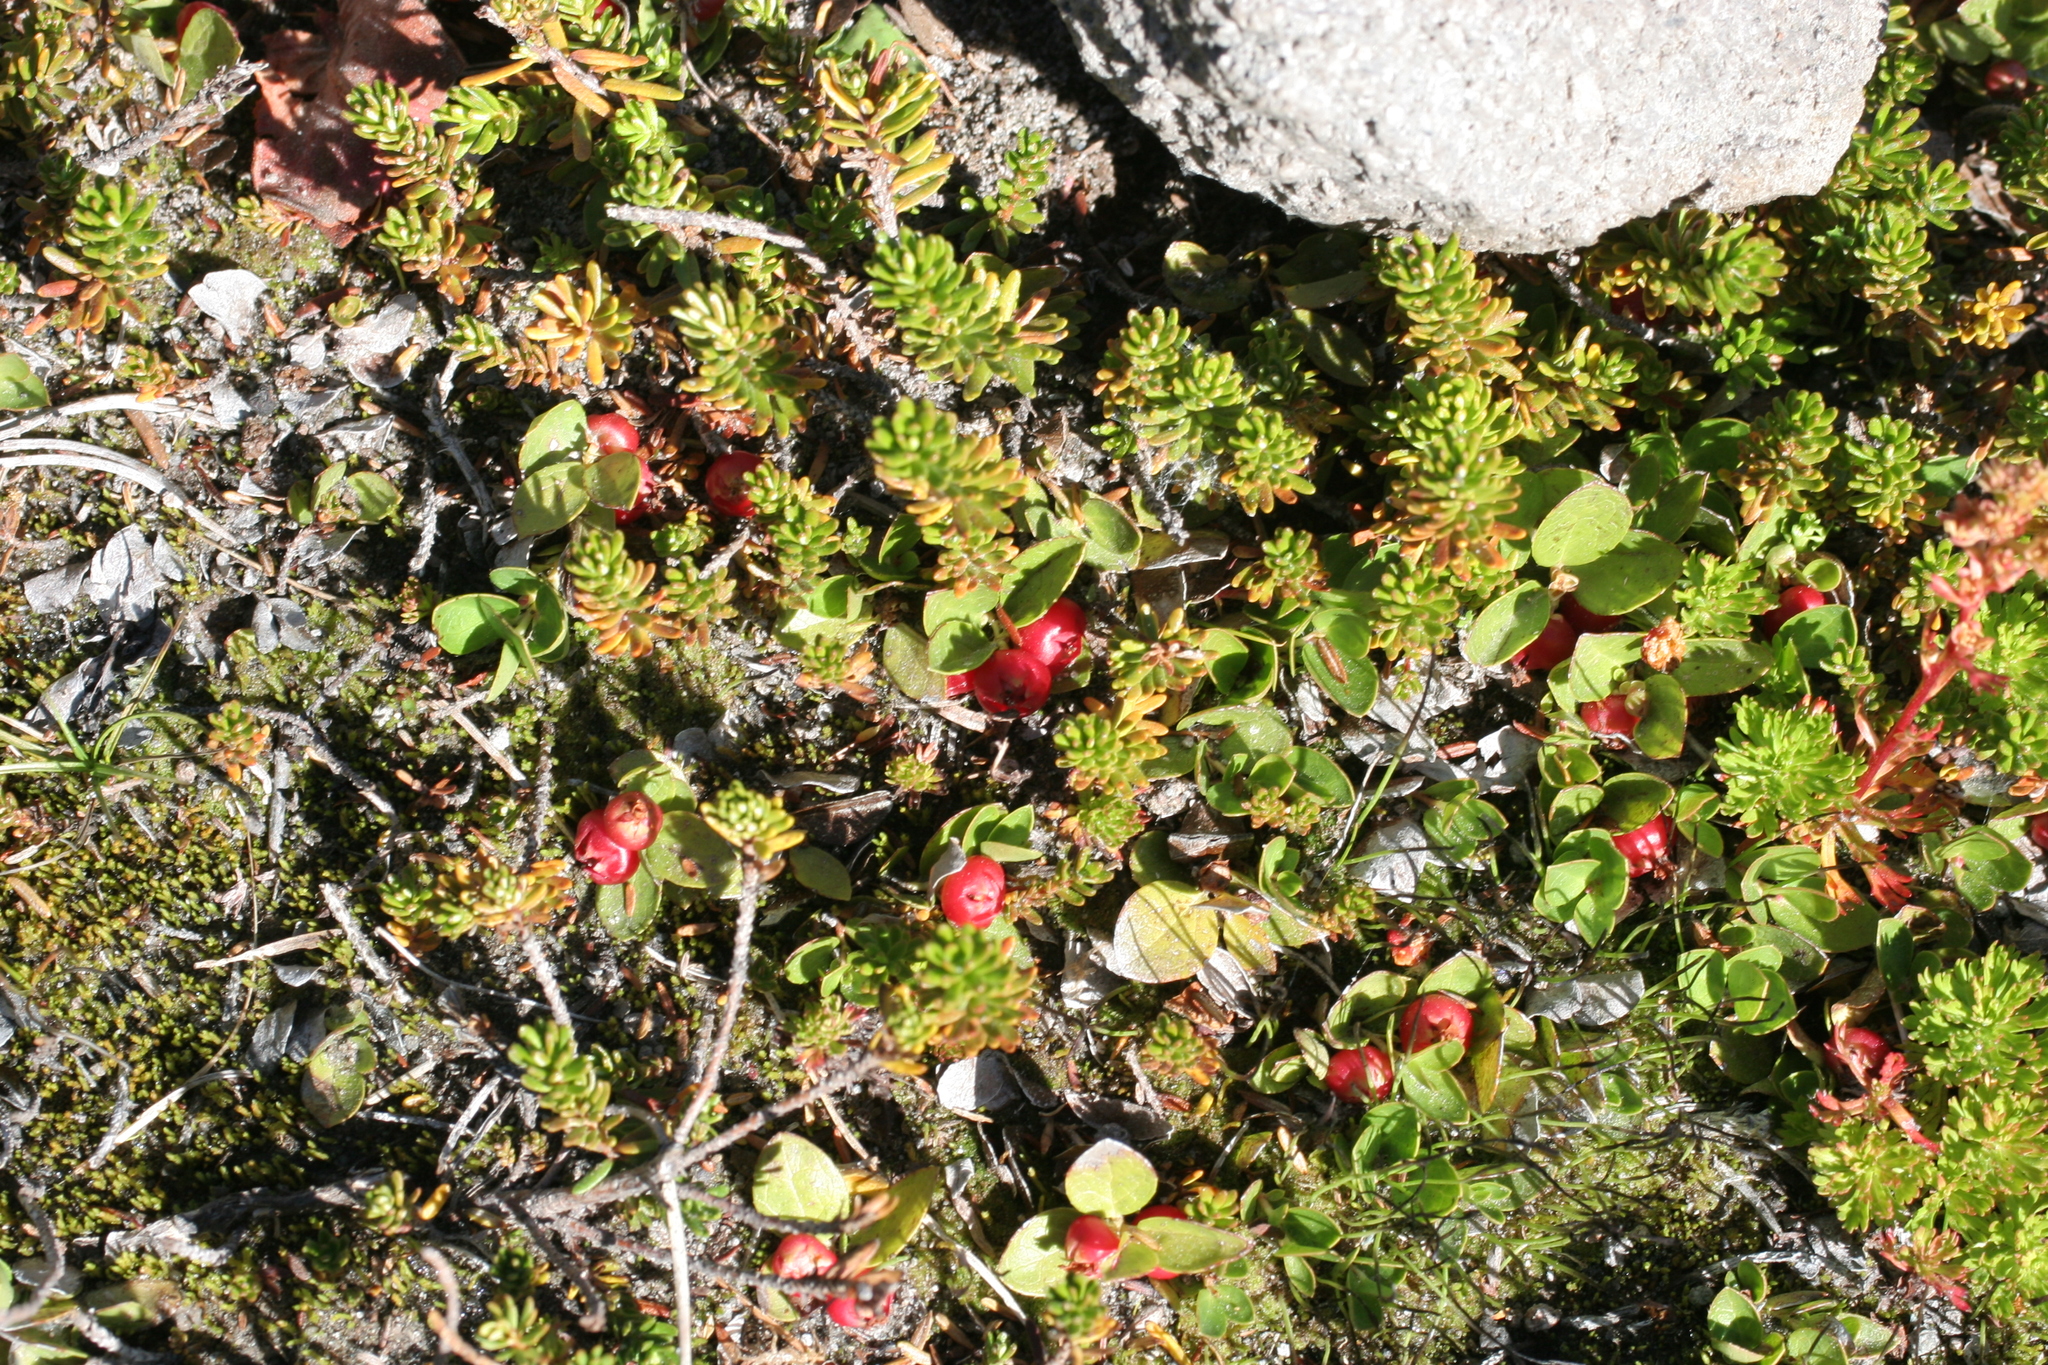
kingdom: Plantae
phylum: Tracheophyta
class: Magnoliopsida
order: Ericales
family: Ericaceae
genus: Gaultheria
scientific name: Gaultheria humifusa
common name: Alpine wintergreen
